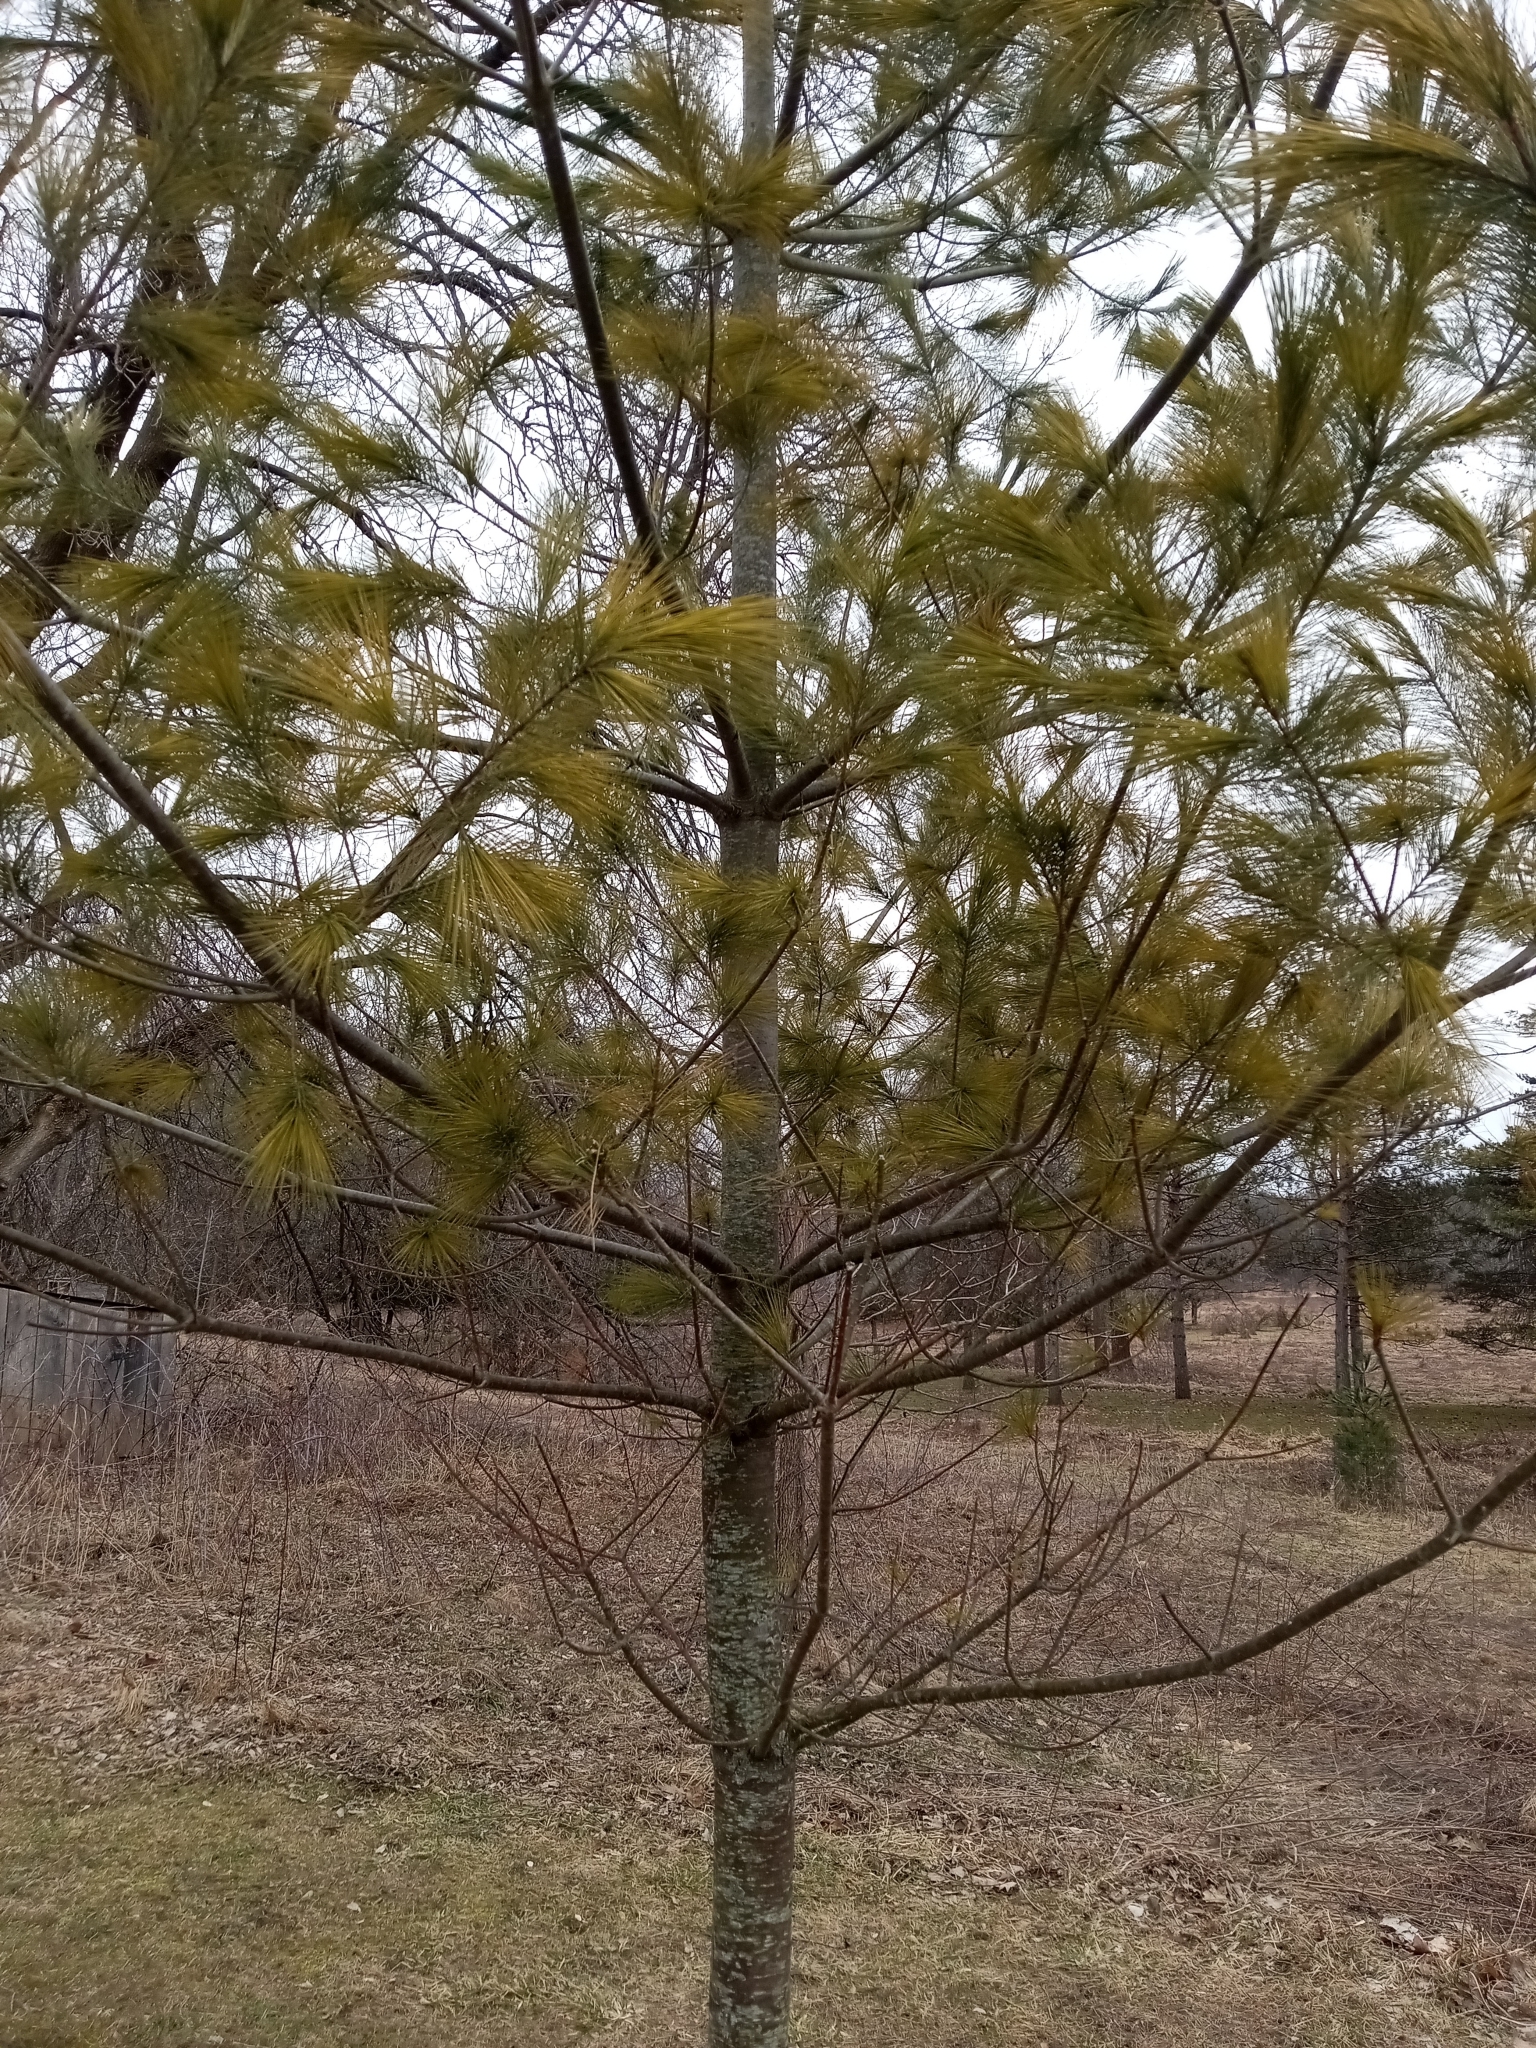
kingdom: Plantae
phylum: Tracheophyta
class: Pinopsida
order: Pinales
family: Pinaceae
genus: Pinus
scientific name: Pinus strobus
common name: Weymouth pine
